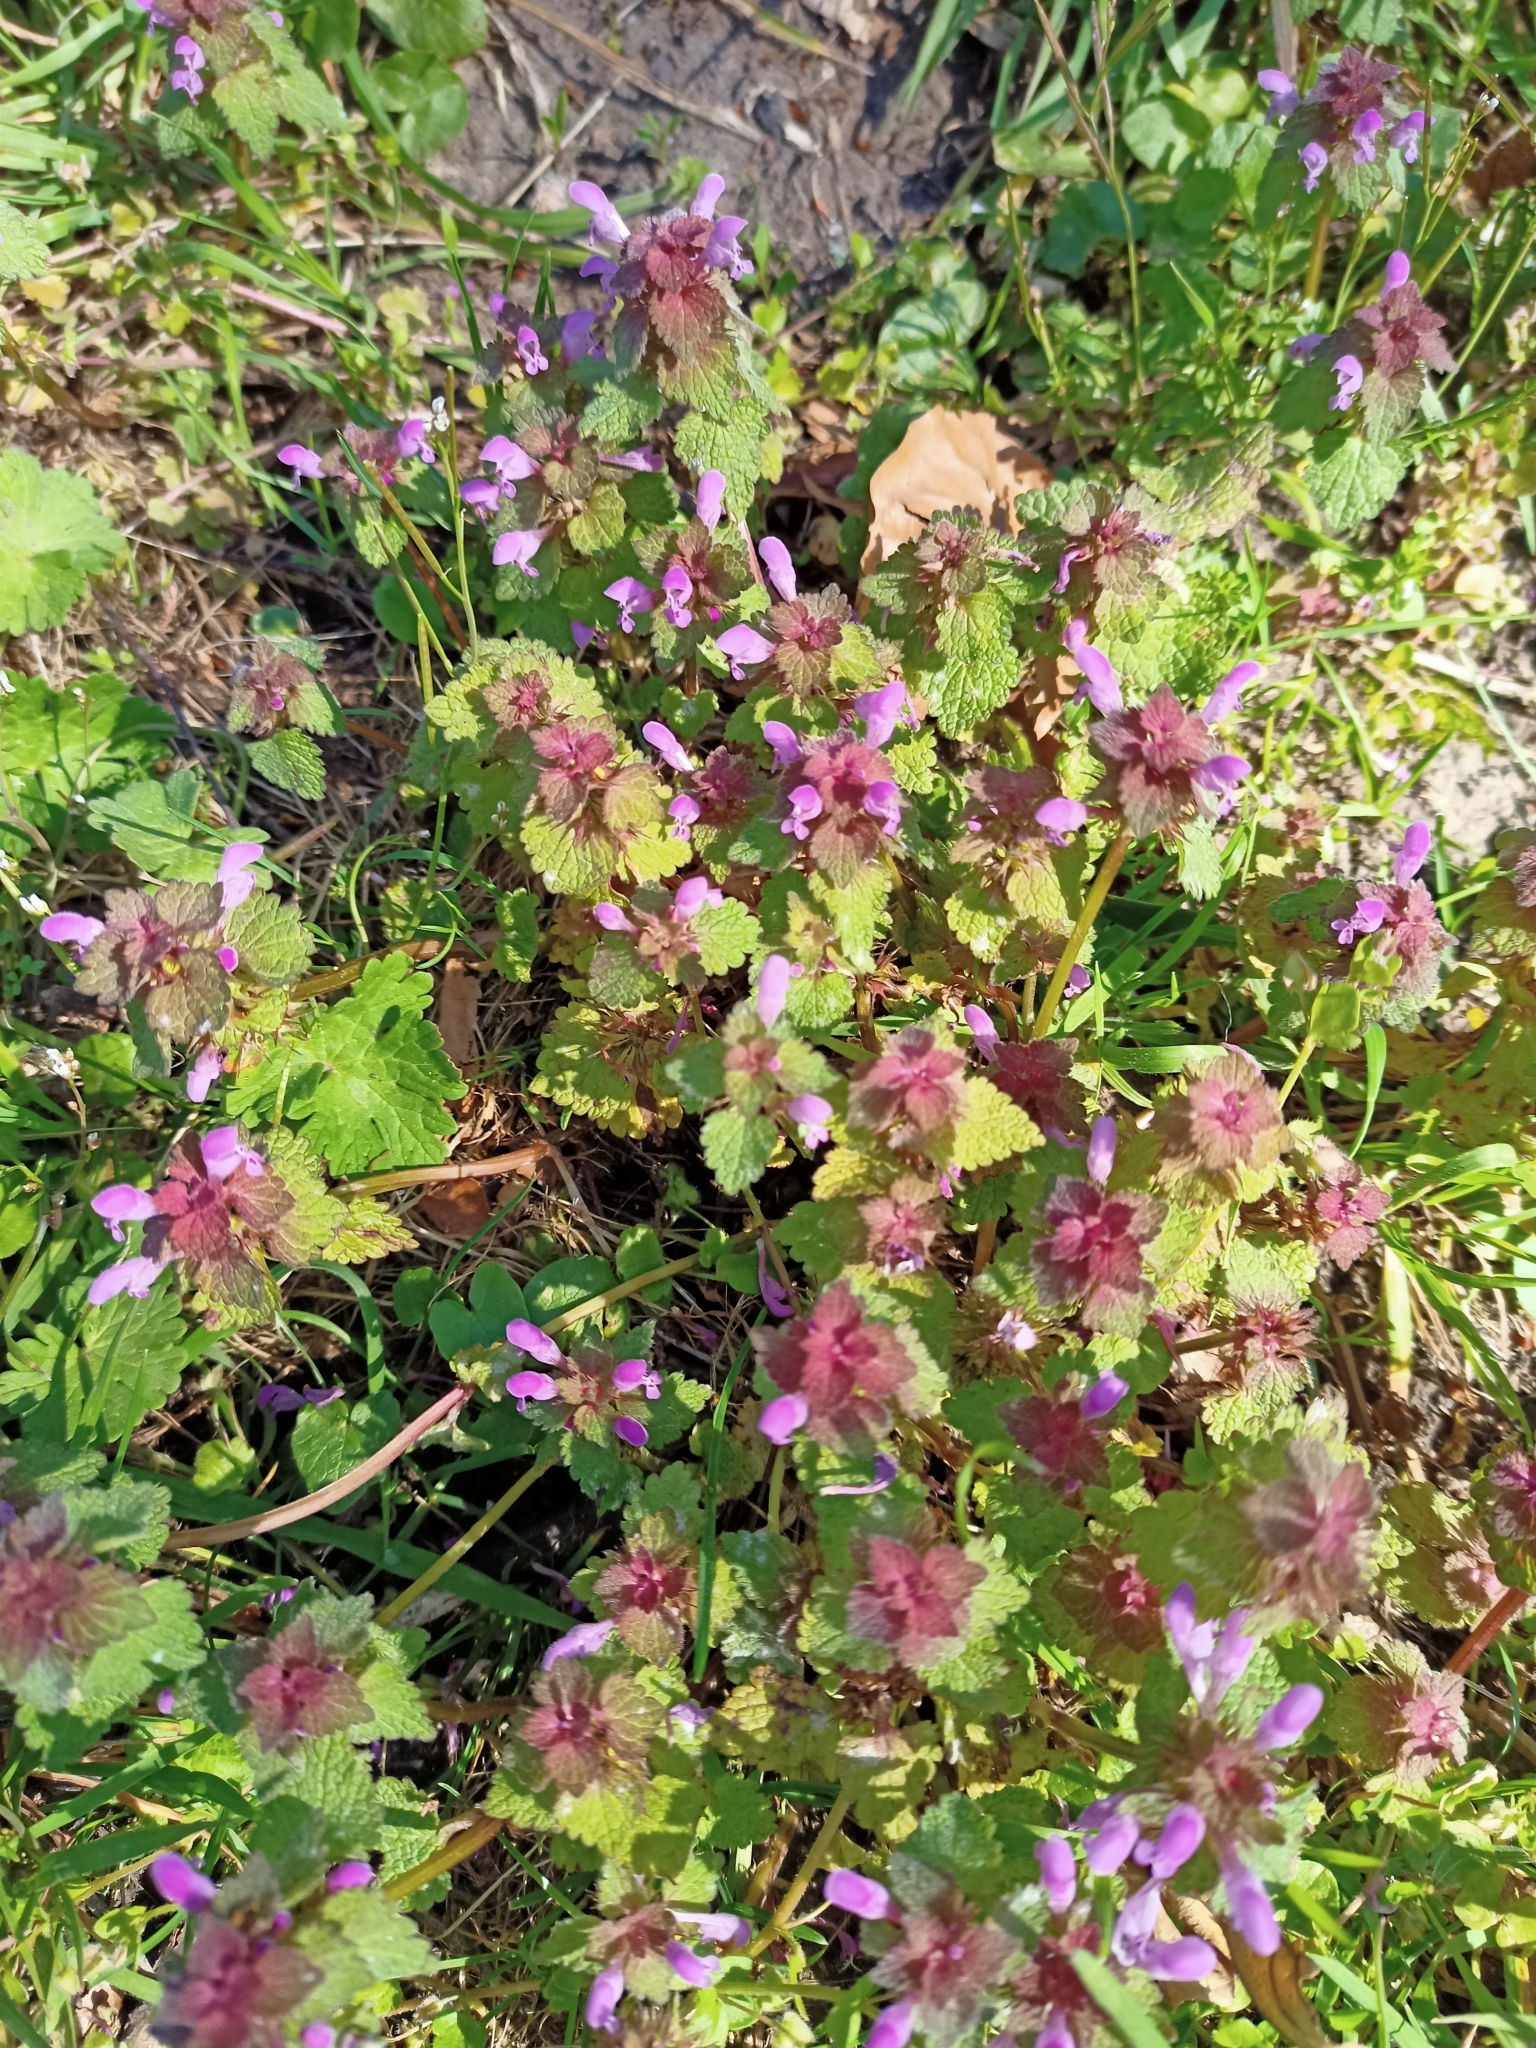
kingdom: Plantae
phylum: Tracheophyta
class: Magnoliopsida
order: Lamiales
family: Lamiaceae
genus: Lamium
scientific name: Lamium purpureum
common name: Red dead-nettle
